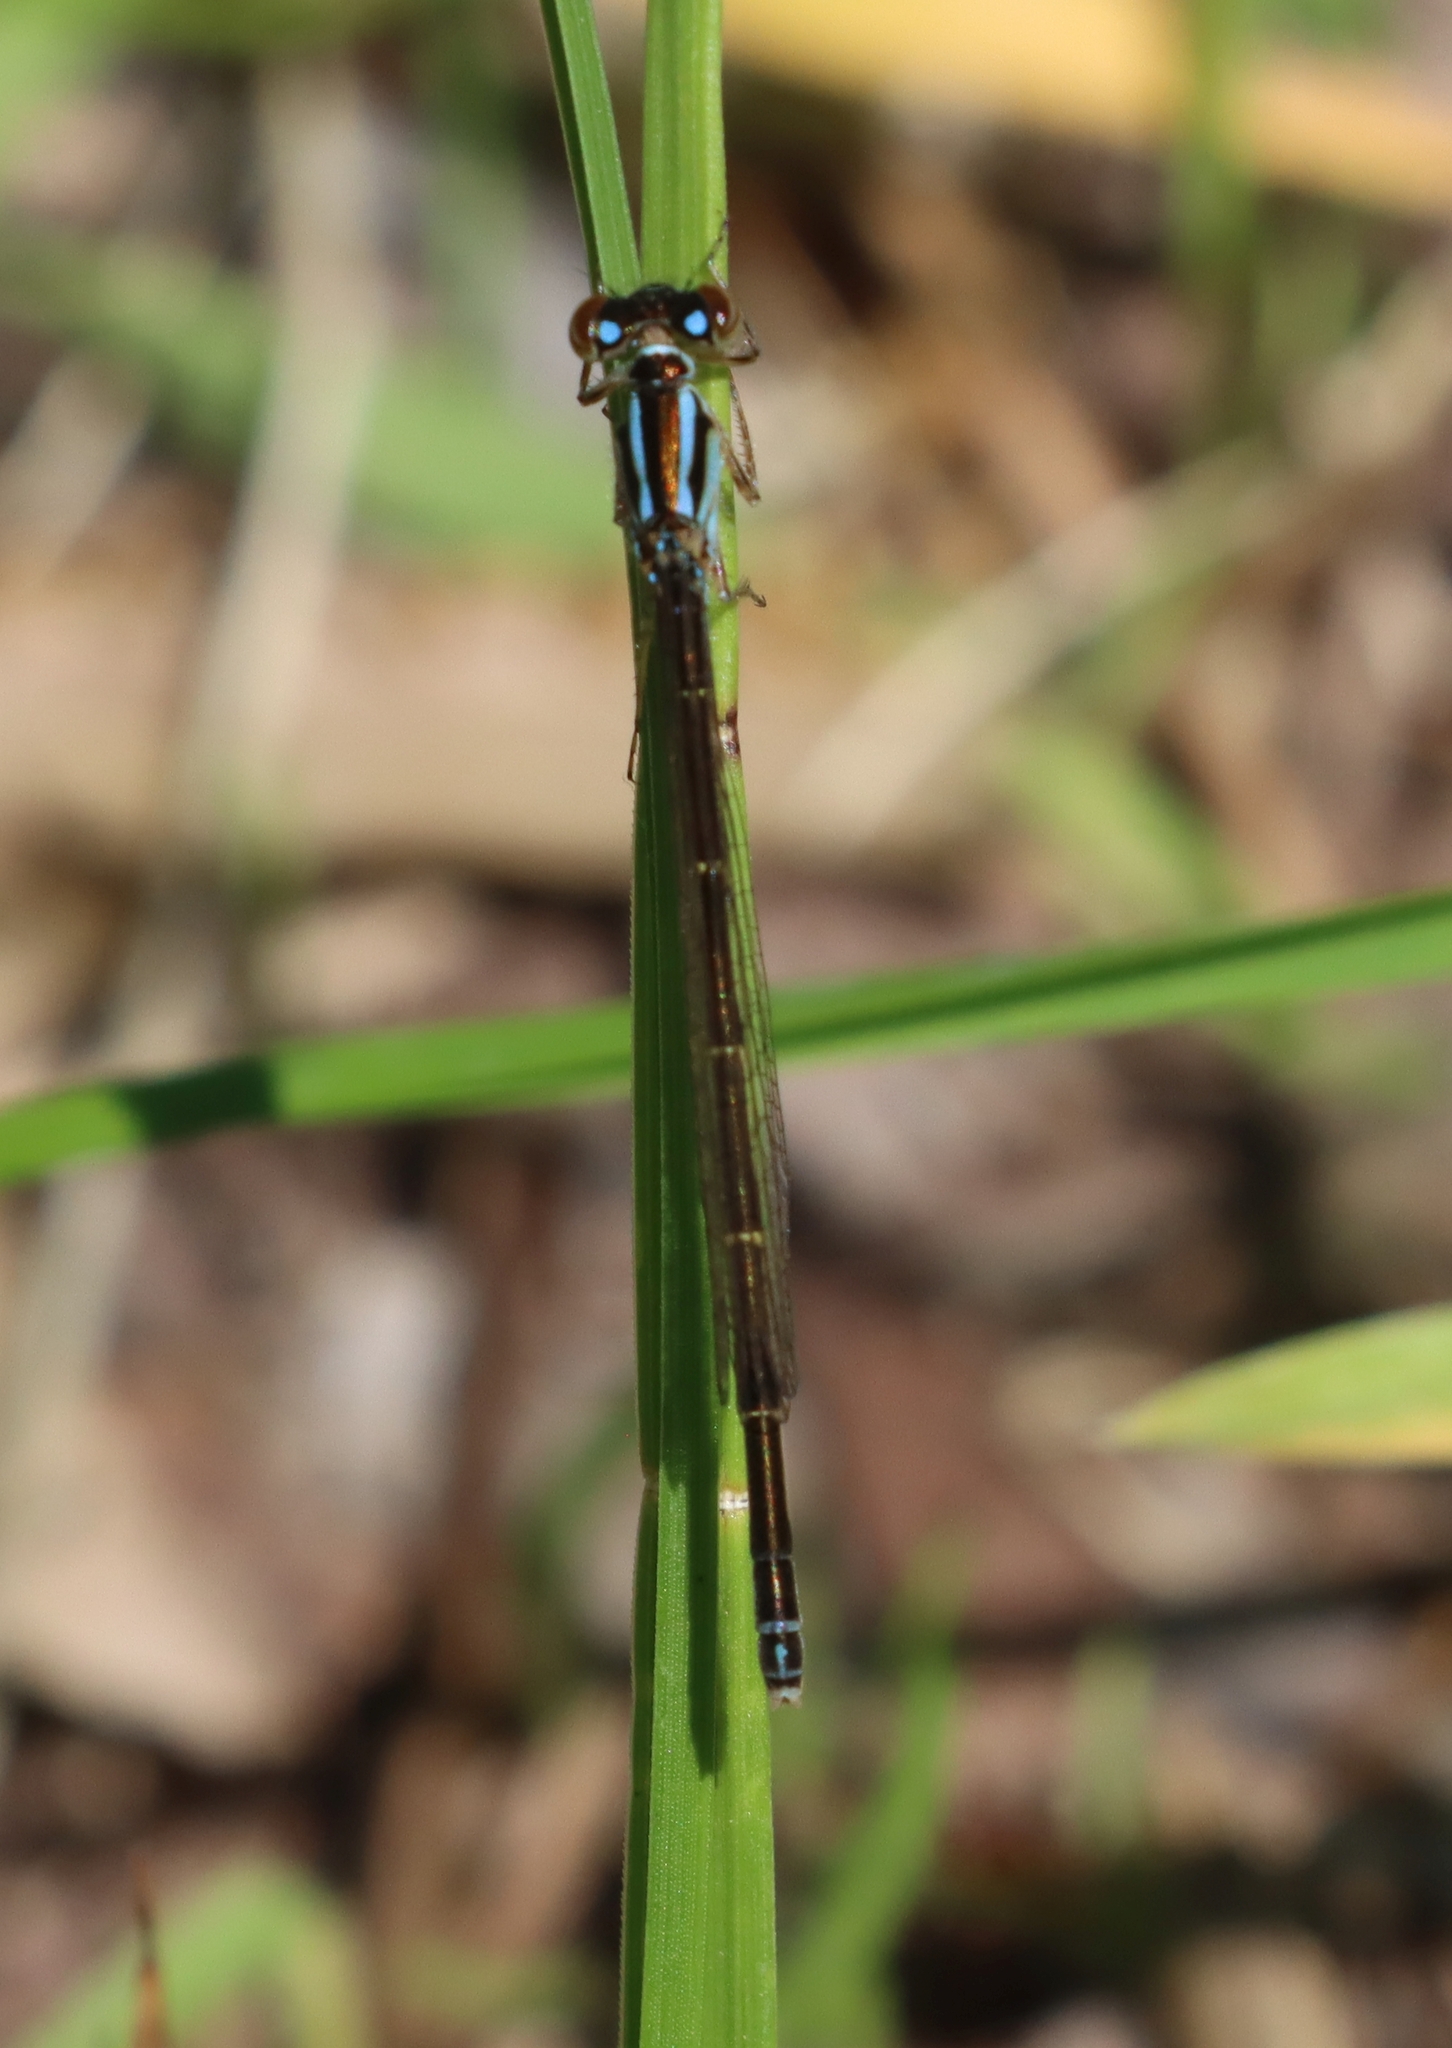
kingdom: Animalia
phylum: Arthropoda
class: Insecta
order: Odonata
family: Coenagrionidae
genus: Ischnura
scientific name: Ischnura
